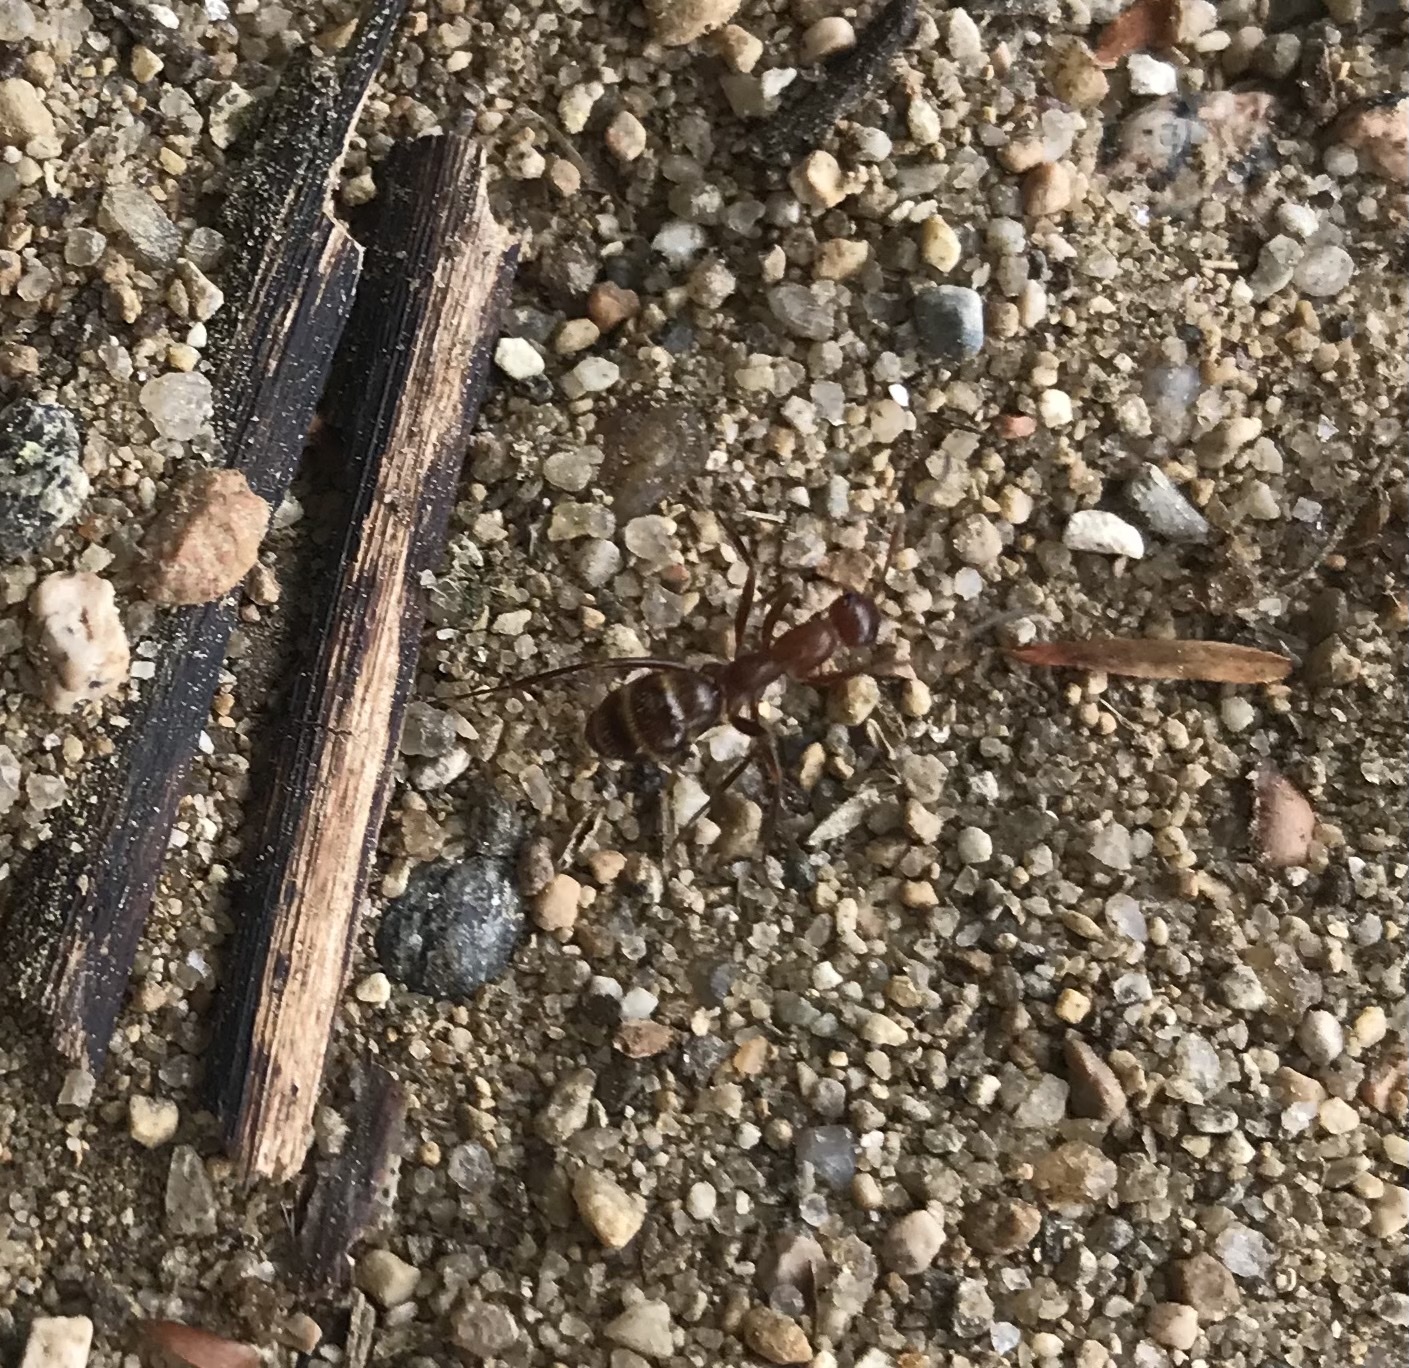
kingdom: Animalia
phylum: Arthropoda
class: Insecta
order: Hymenoptera
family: Formicidae
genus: Formica
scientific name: Formica
